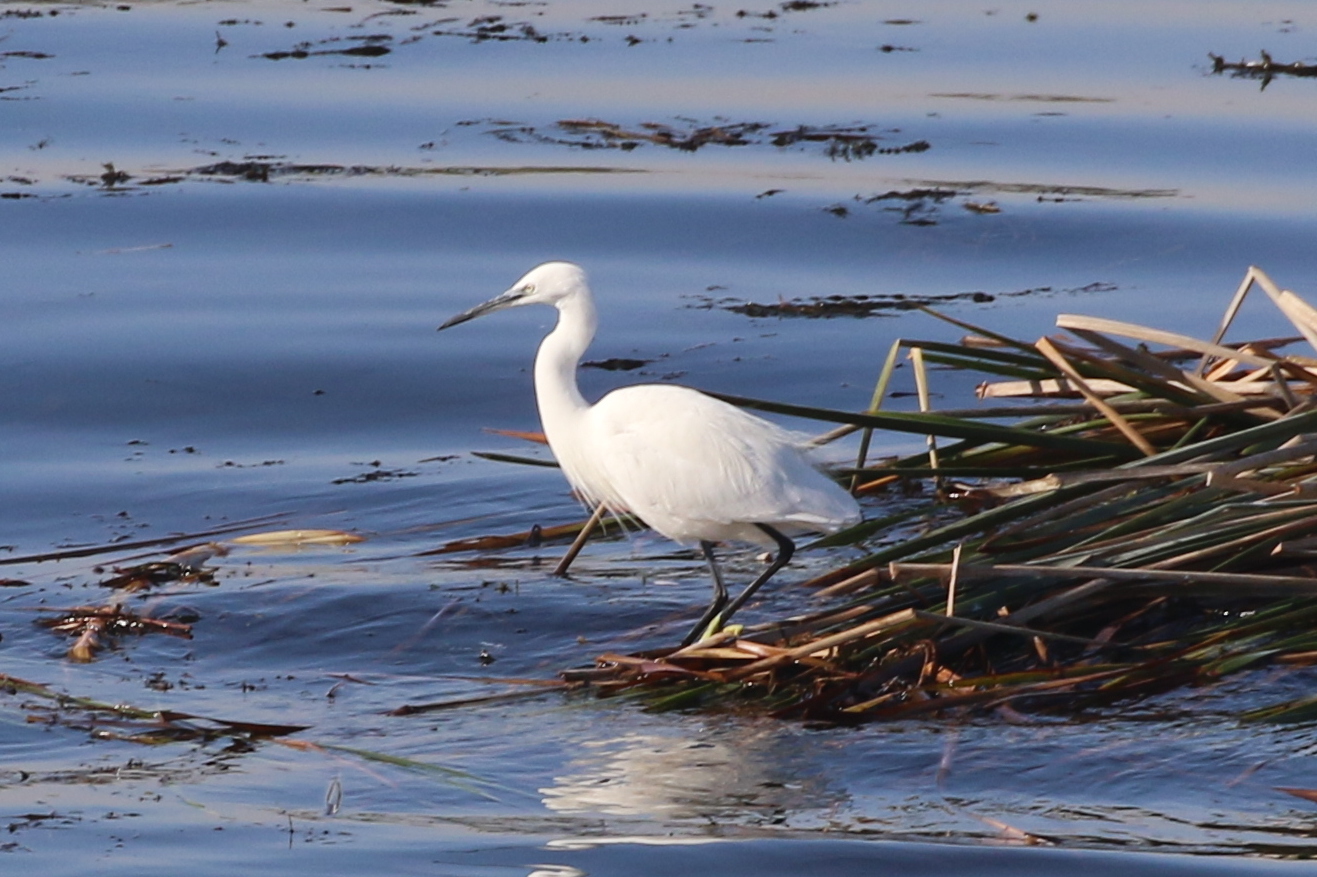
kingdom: Animalia
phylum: Chordata
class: Aves
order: Pelecaniformes
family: Ardeidae
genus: Egretta
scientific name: Egretta garzetta
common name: Little egret
